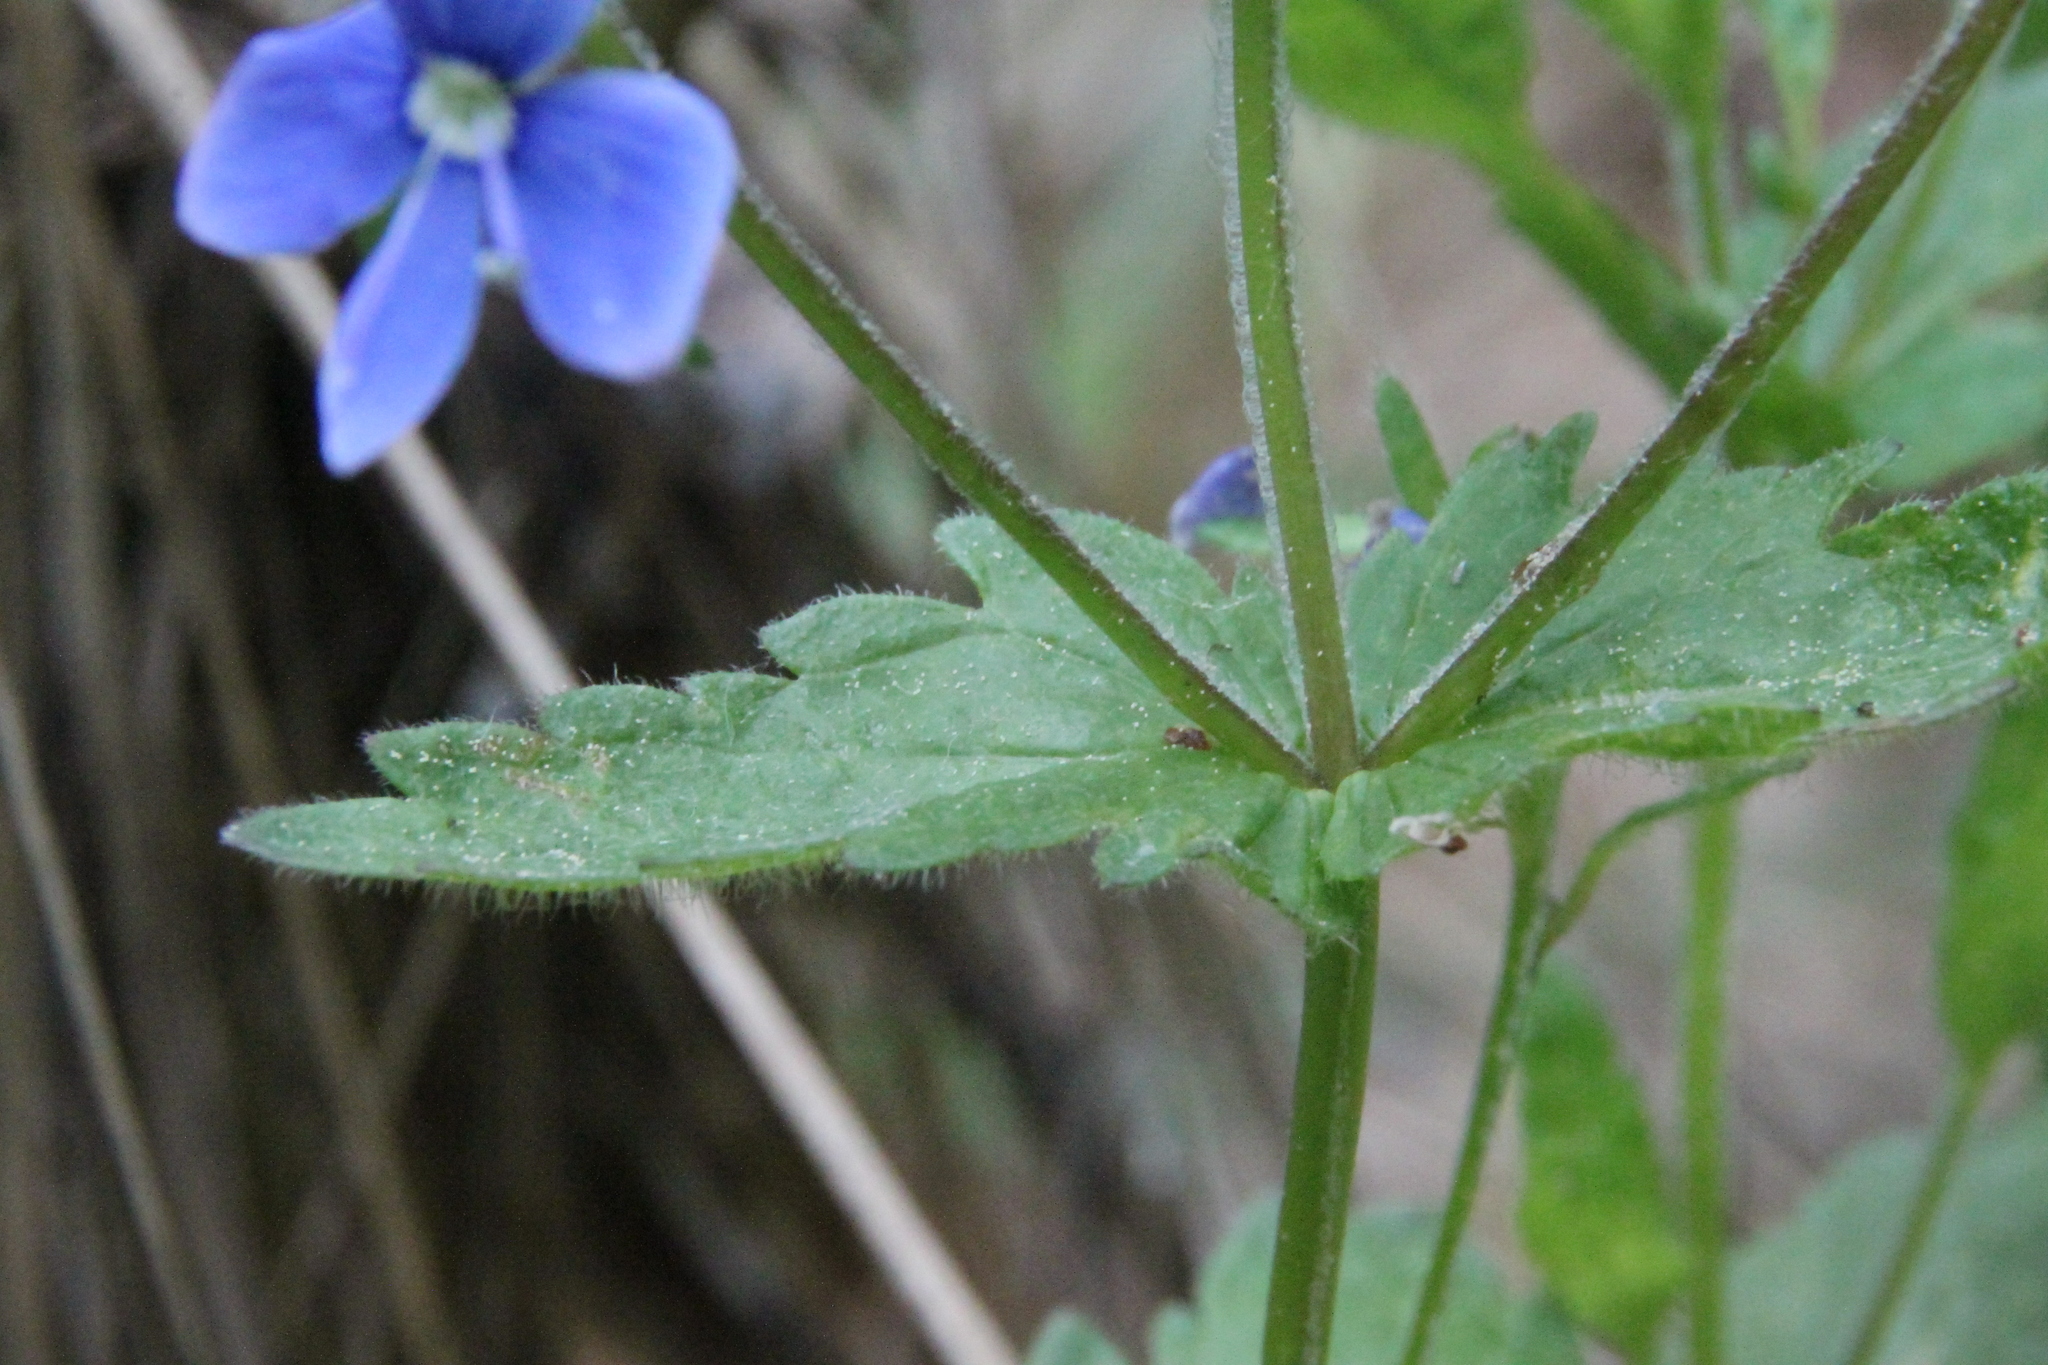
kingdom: Plantae
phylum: Tracheophyta
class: Magnoliopsida
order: Lamiales
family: Plantaginaceae
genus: Veronica
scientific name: Veronica chamaedrys
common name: Germander speedwell
